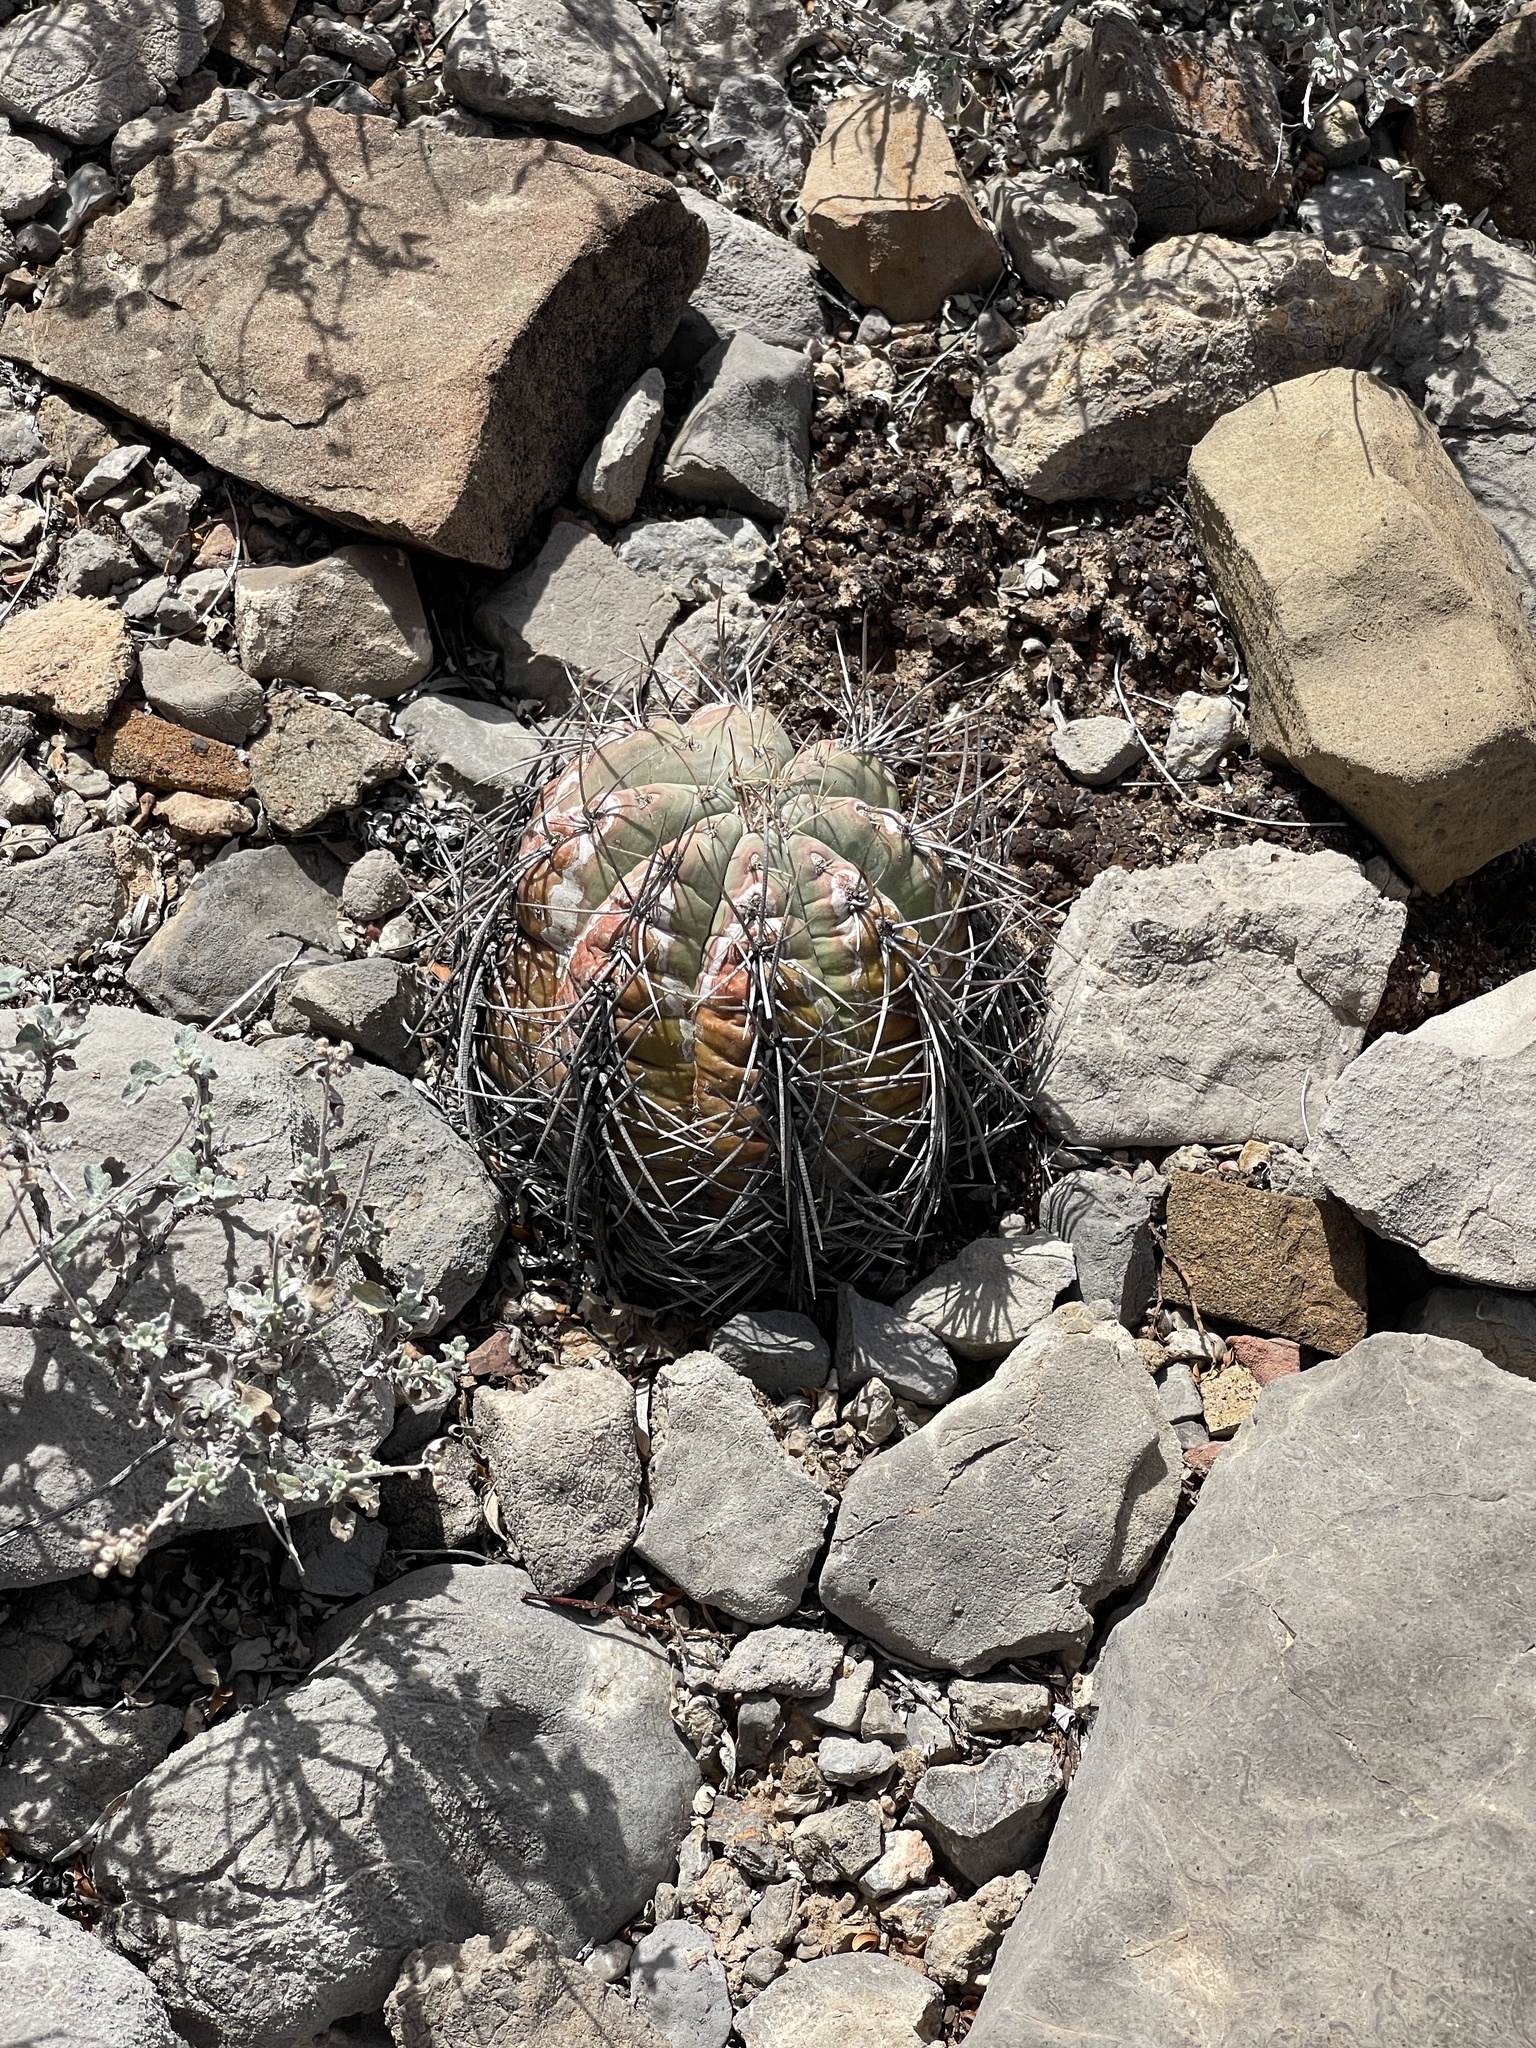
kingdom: Plantae
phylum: Tracheophyta
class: Magnoliopsida
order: Caryophyllales
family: Cactaceae
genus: Echinocactus
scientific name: Echinocactus horizonthalonius
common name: Devilshead
